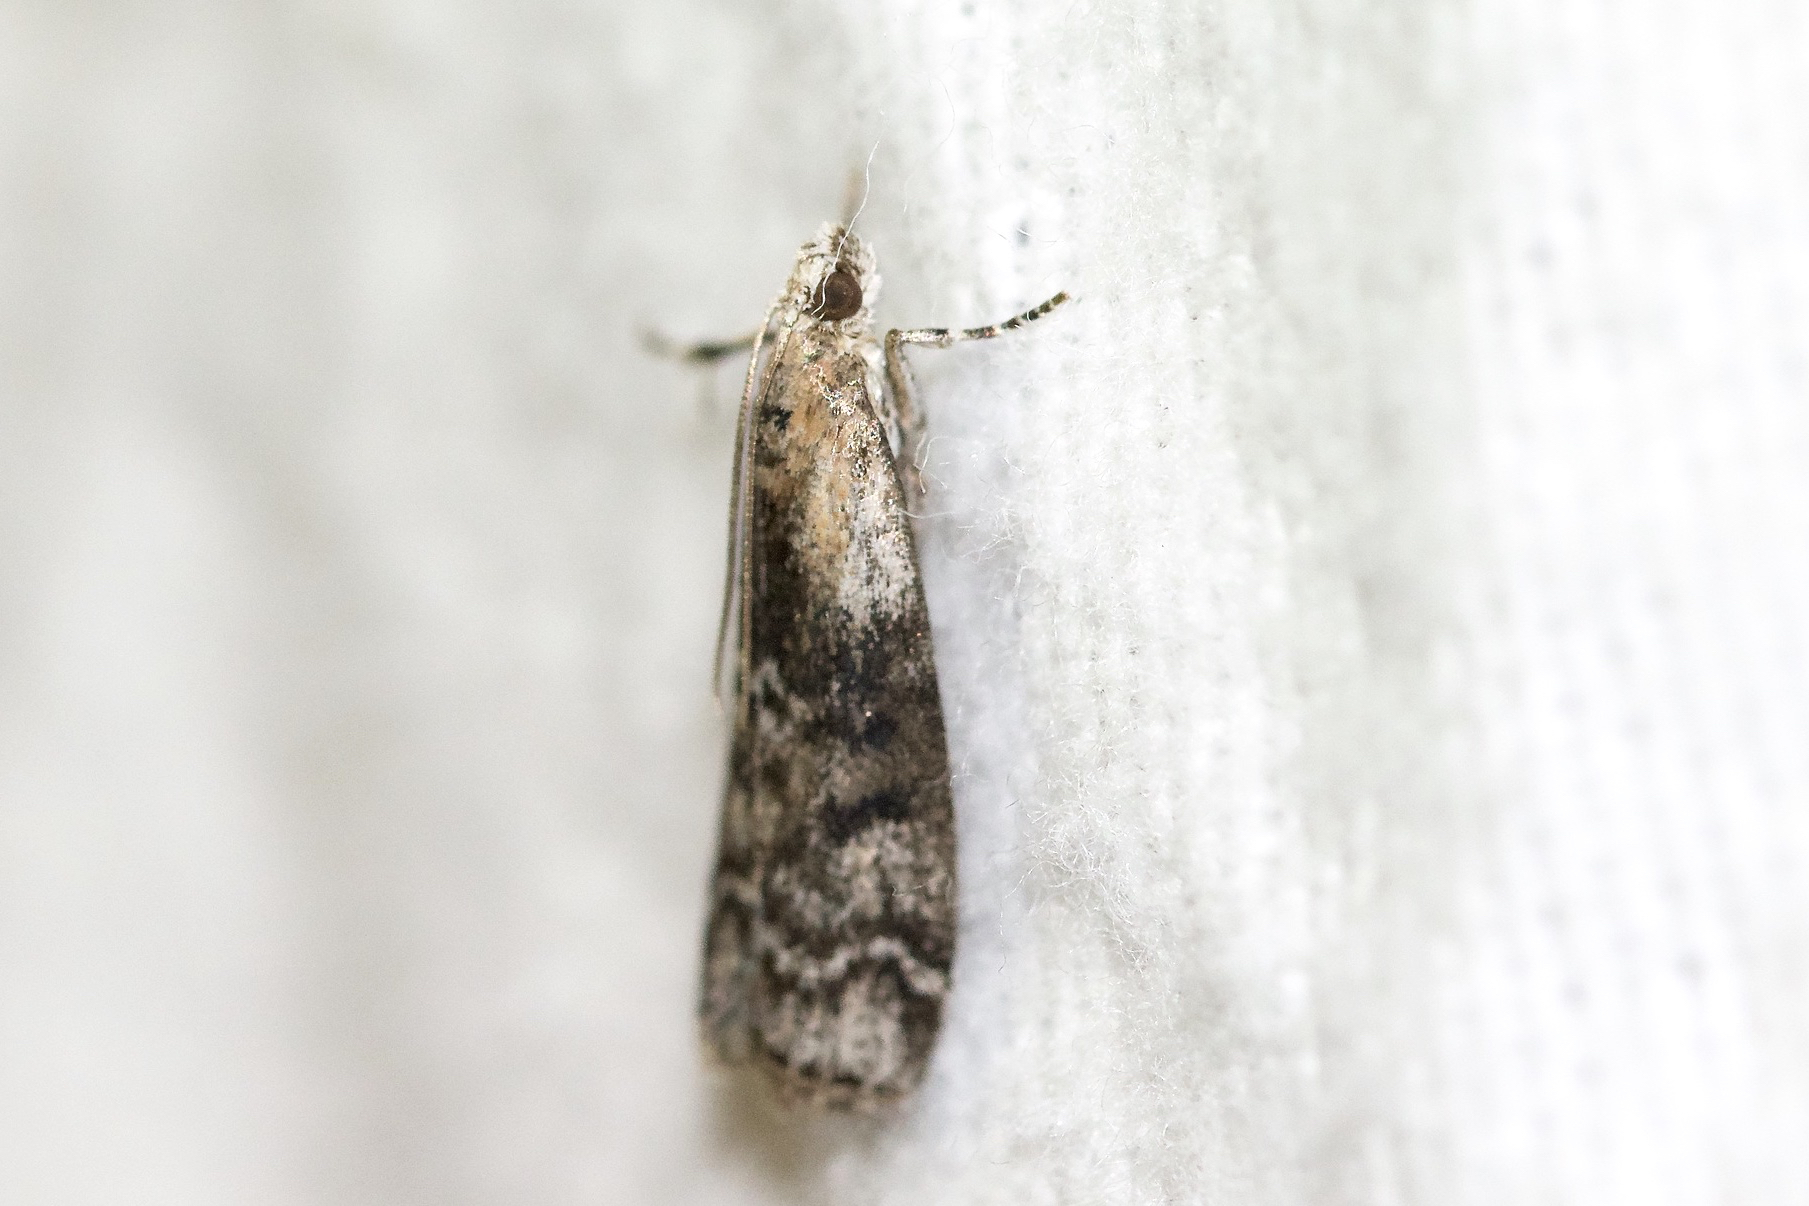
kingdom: Animalia
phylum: Arthropoda
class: Insecta
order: Lepidoptera
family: Pyralidae
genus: Glyptocera
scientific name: Glyptocera consobrinella
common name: Viburnum glyptocera moth
